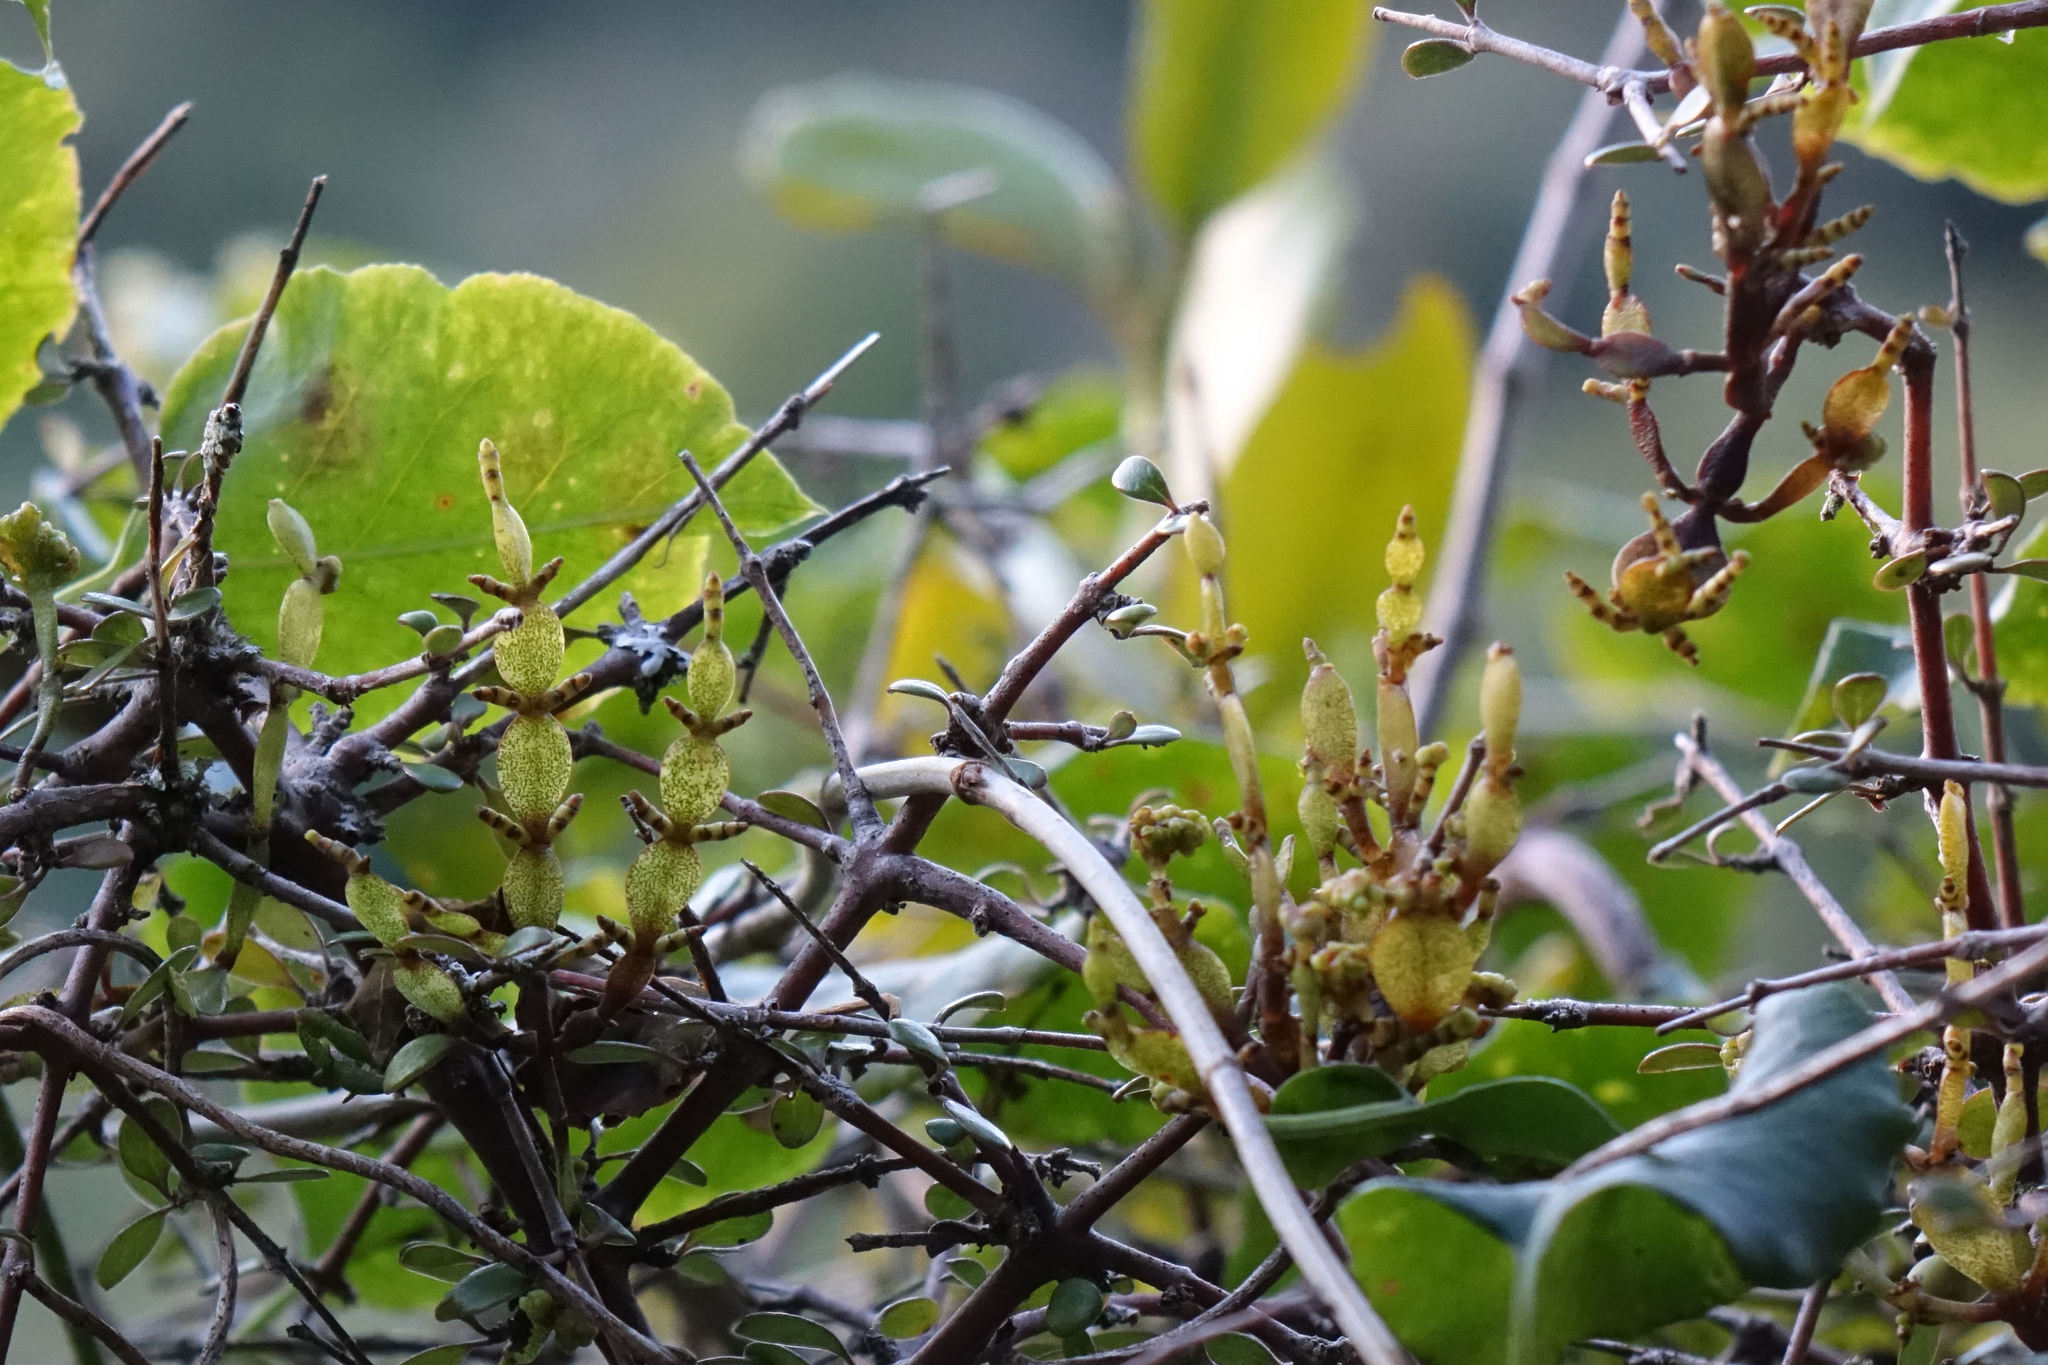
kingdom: Plantae
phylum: Tracheophyta
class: Magnoliopsida
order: Santalales
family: Viscaceae
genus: Korthalsella
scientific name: Korthalsella lindsayi
